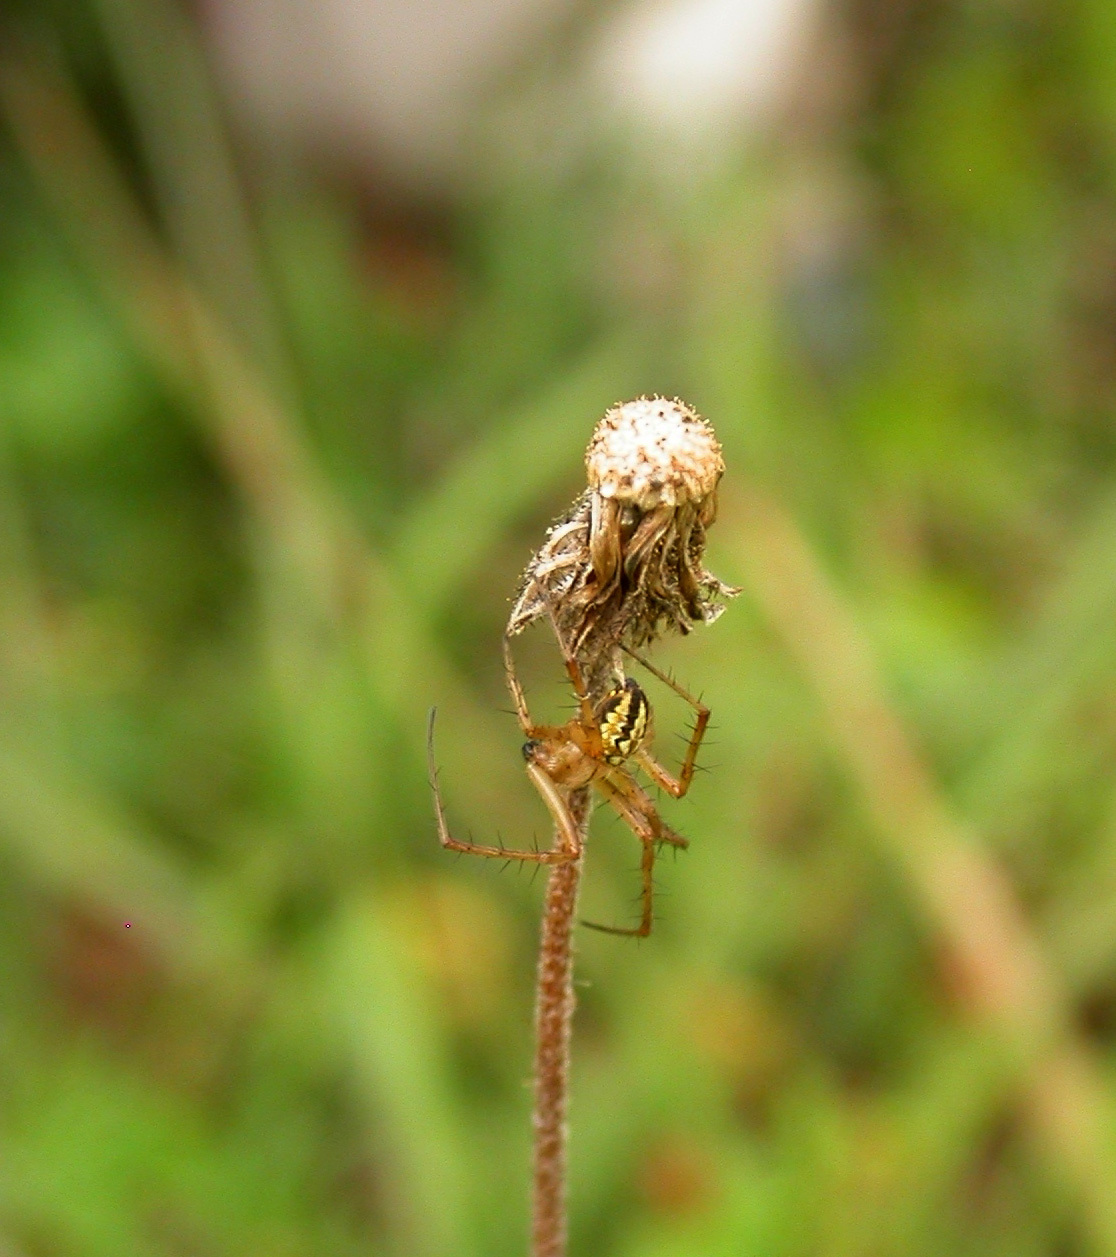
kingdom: Animalia
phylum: Arthropoda
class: Arachnida
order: Araneae
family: Araneidae
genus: Neoscona
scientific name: Neoscona adianta
